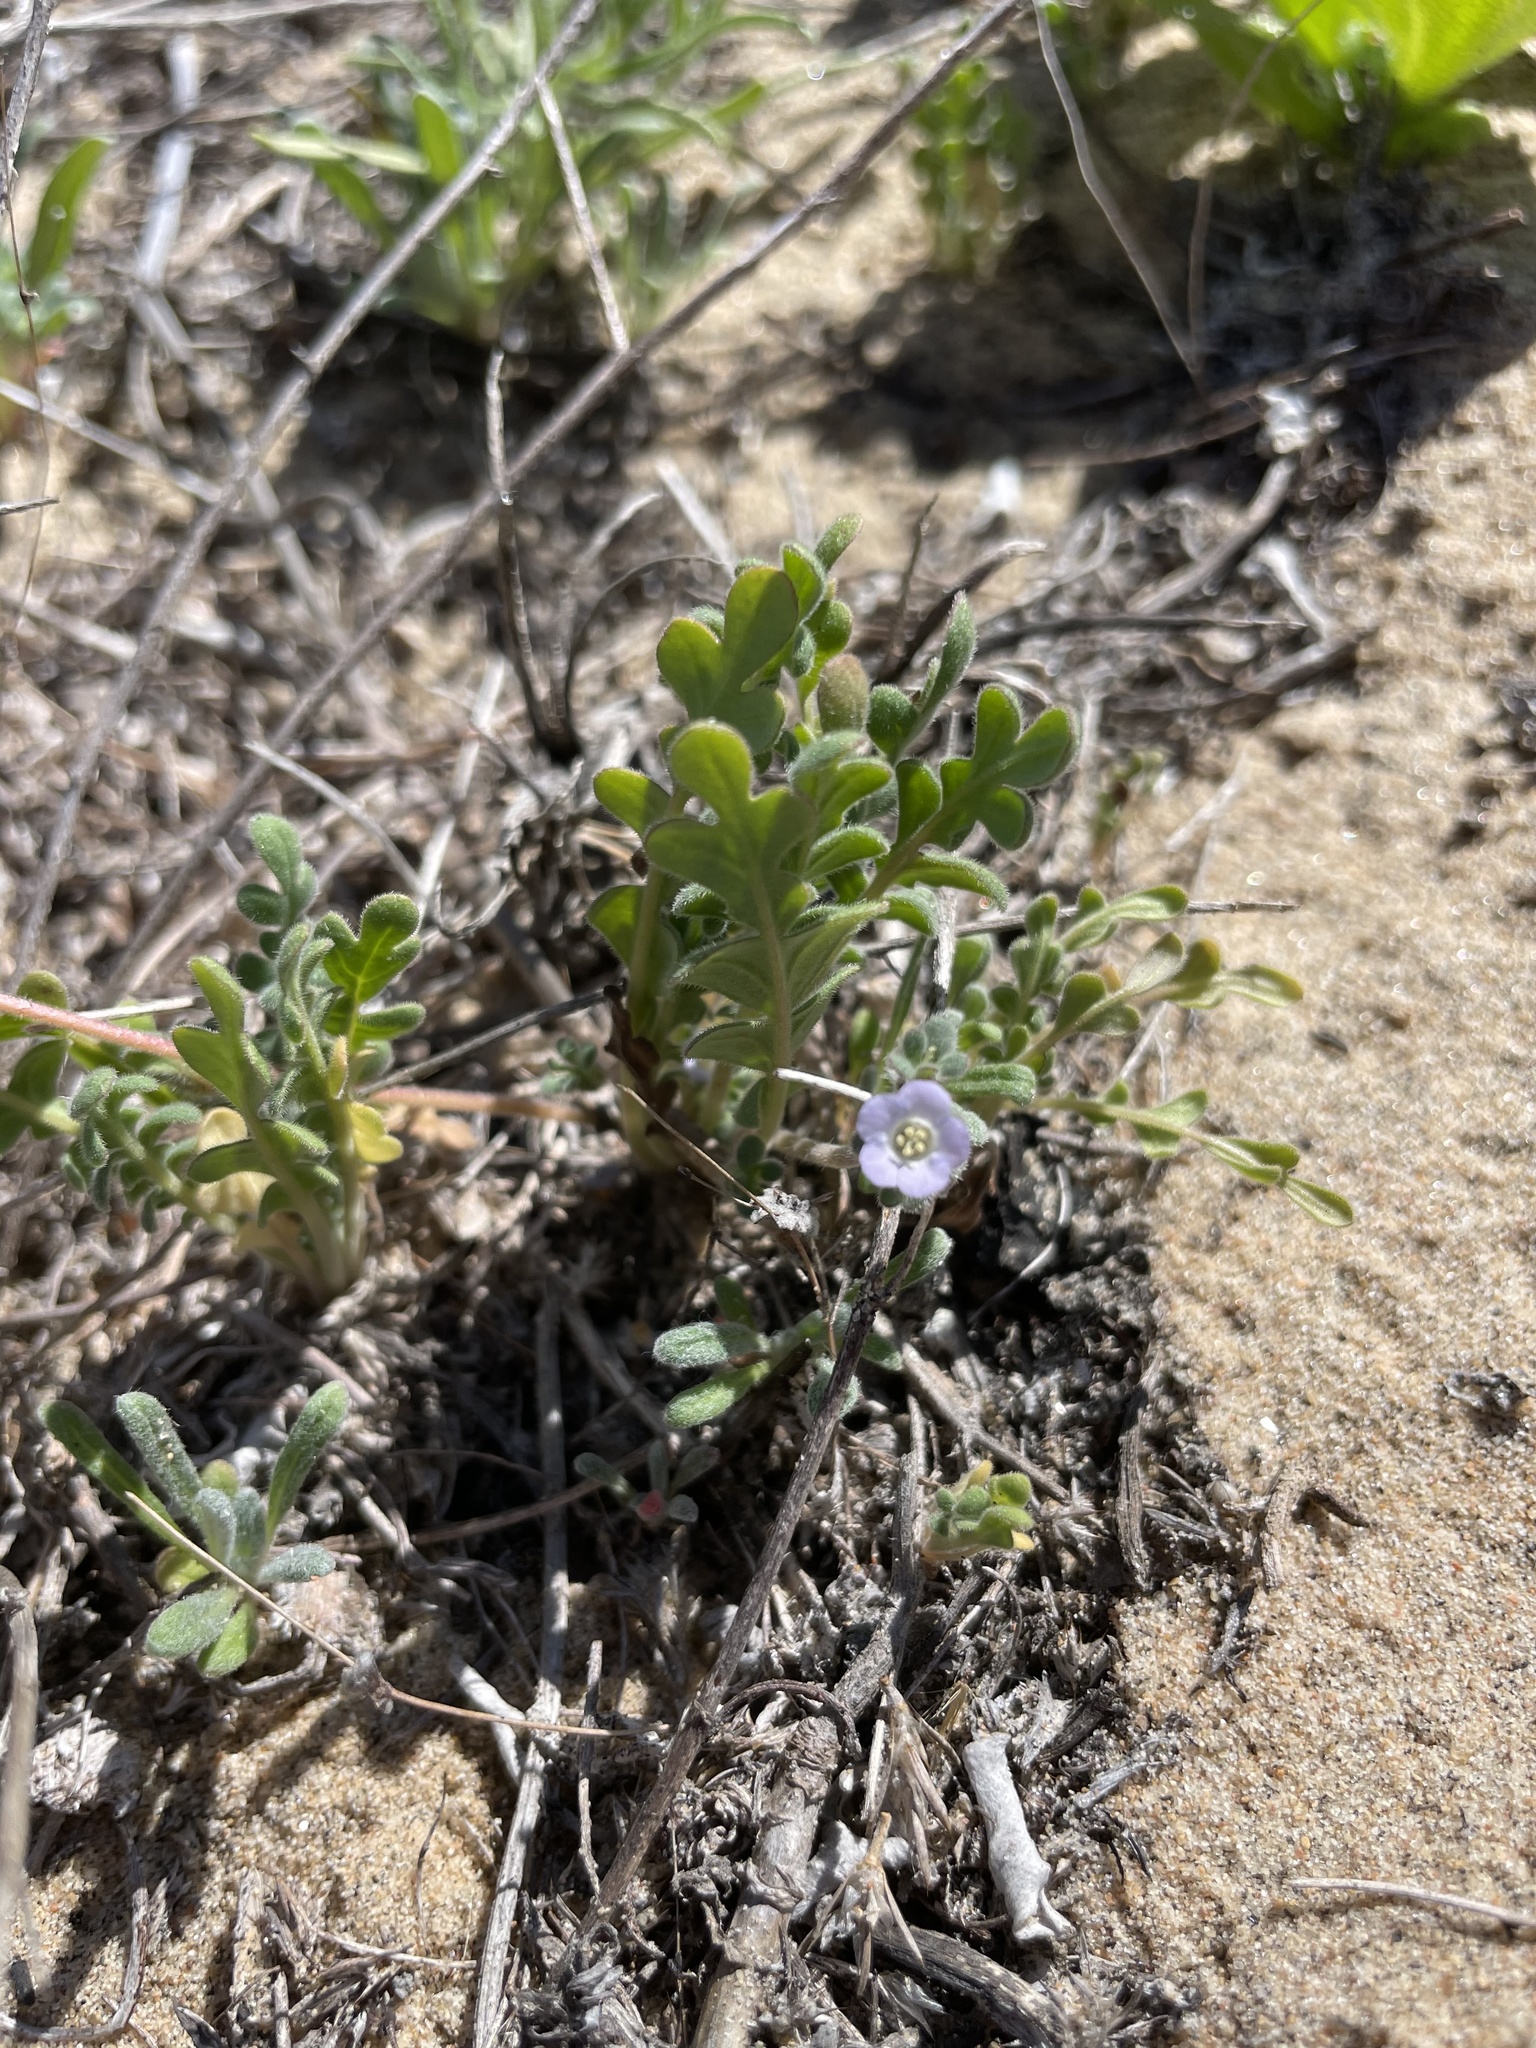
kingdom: Plantae
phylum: Tracheophyta
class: Magnoliopsida
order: Boraginales
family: Hydrophyllaceae
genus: Phacelia
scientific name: Phacelia stellaris
